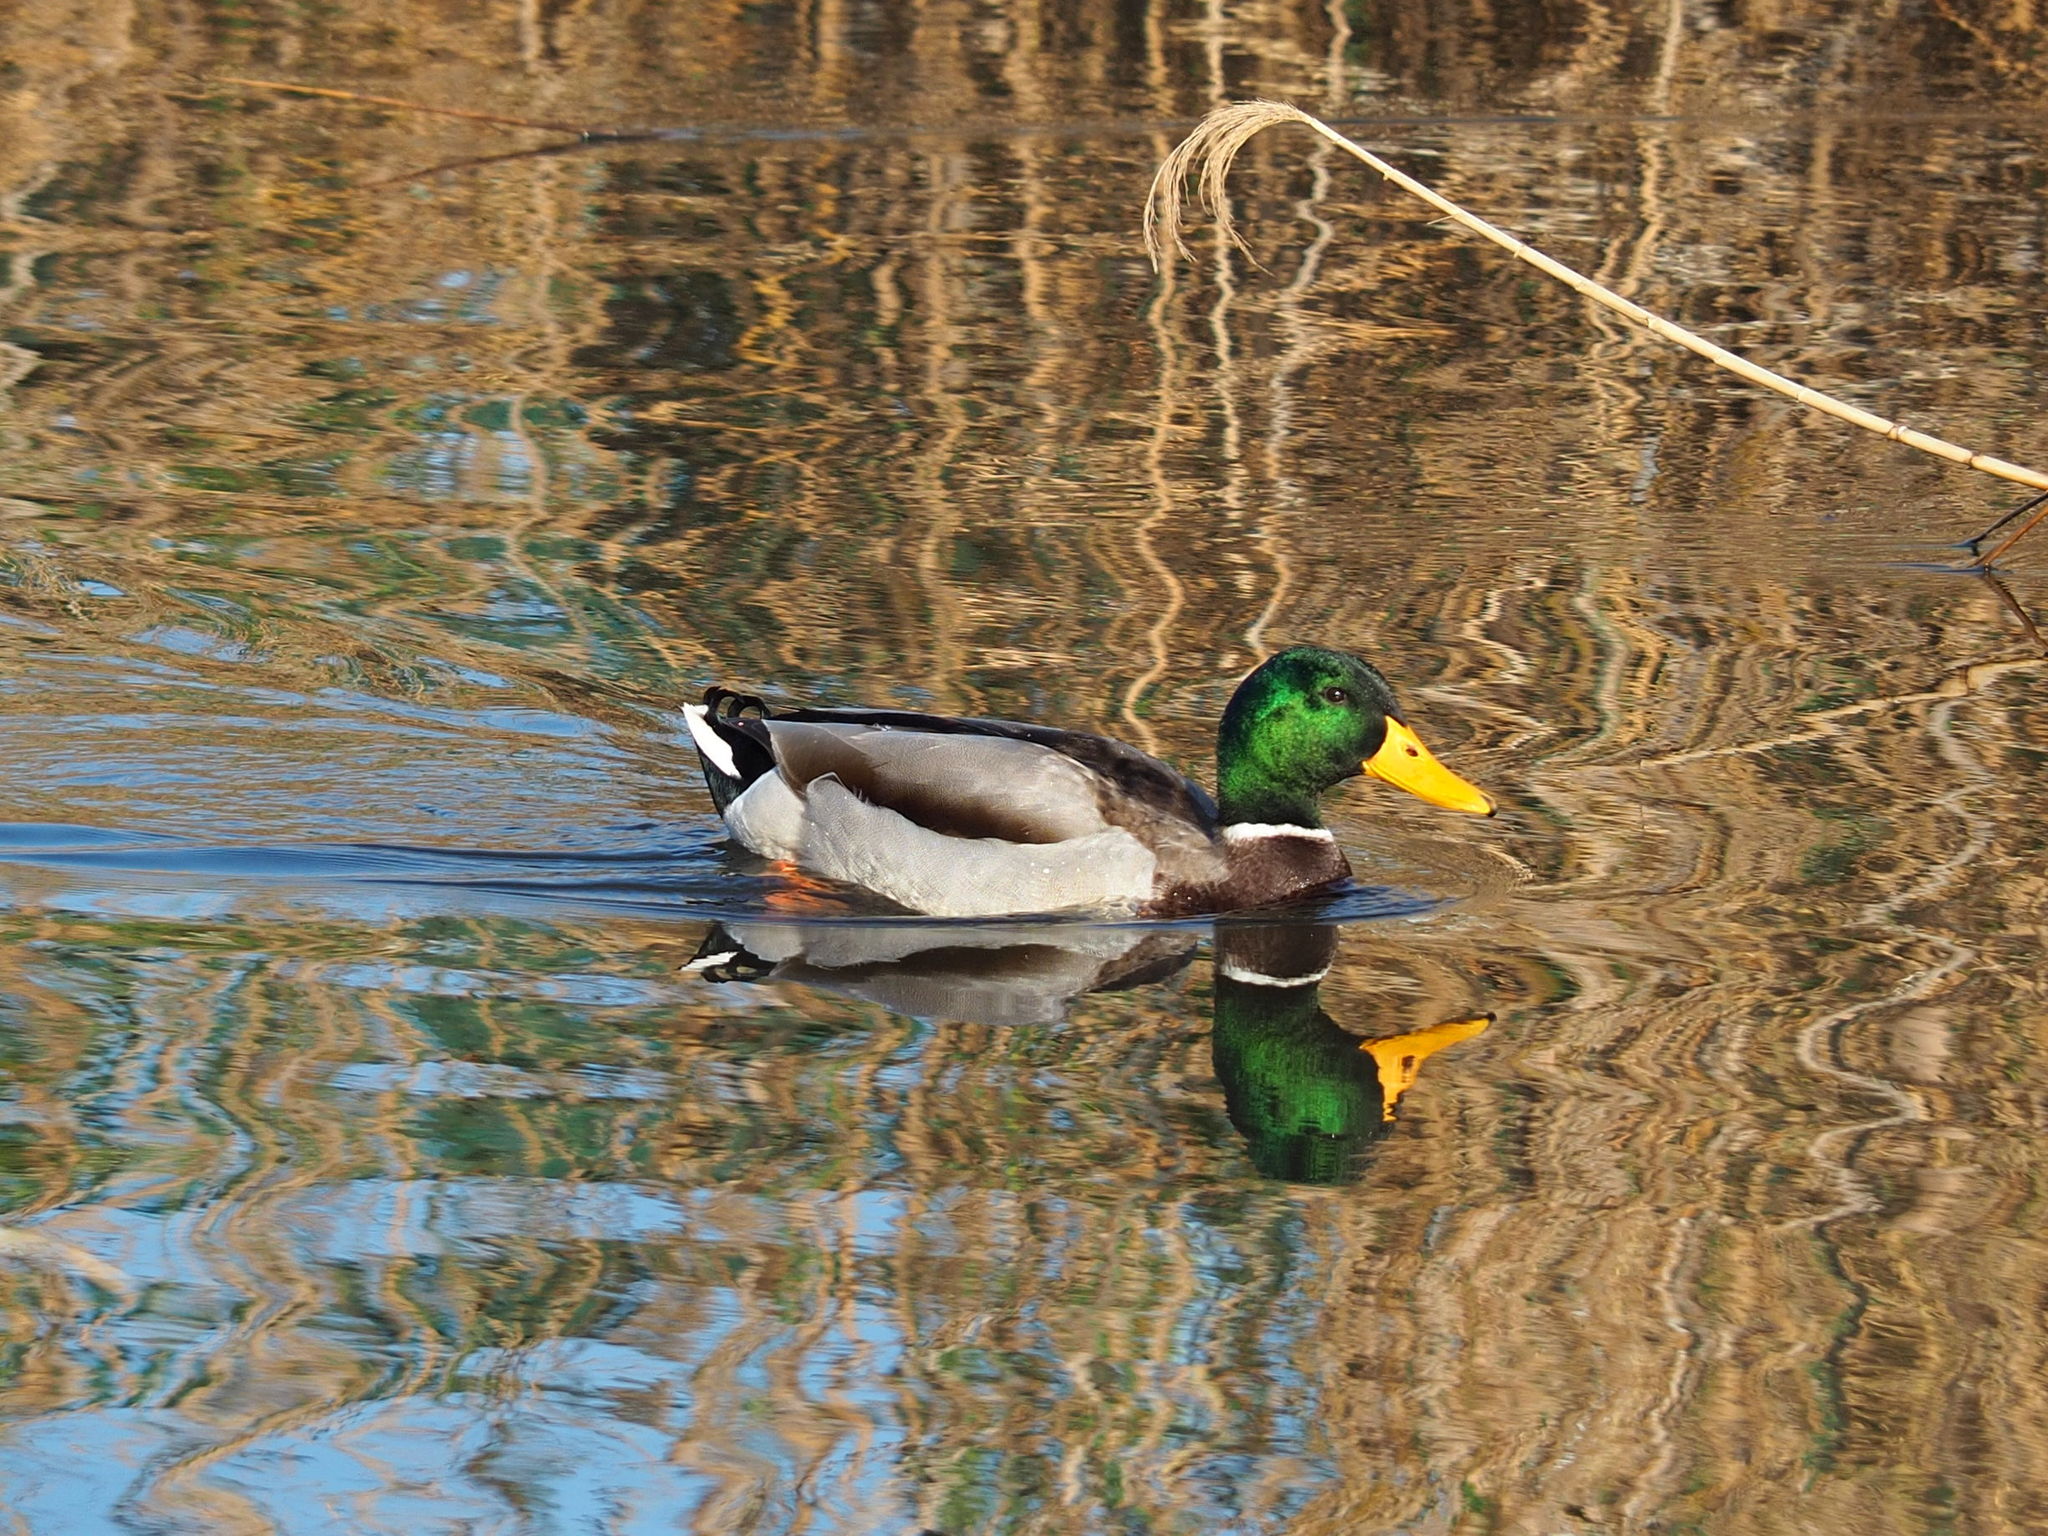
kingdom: Animalia
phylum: Chordata
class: Aves
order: Anseriformes
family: Anatidae
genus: Anas
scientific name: Anas platyrhynchos
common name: Mallard
